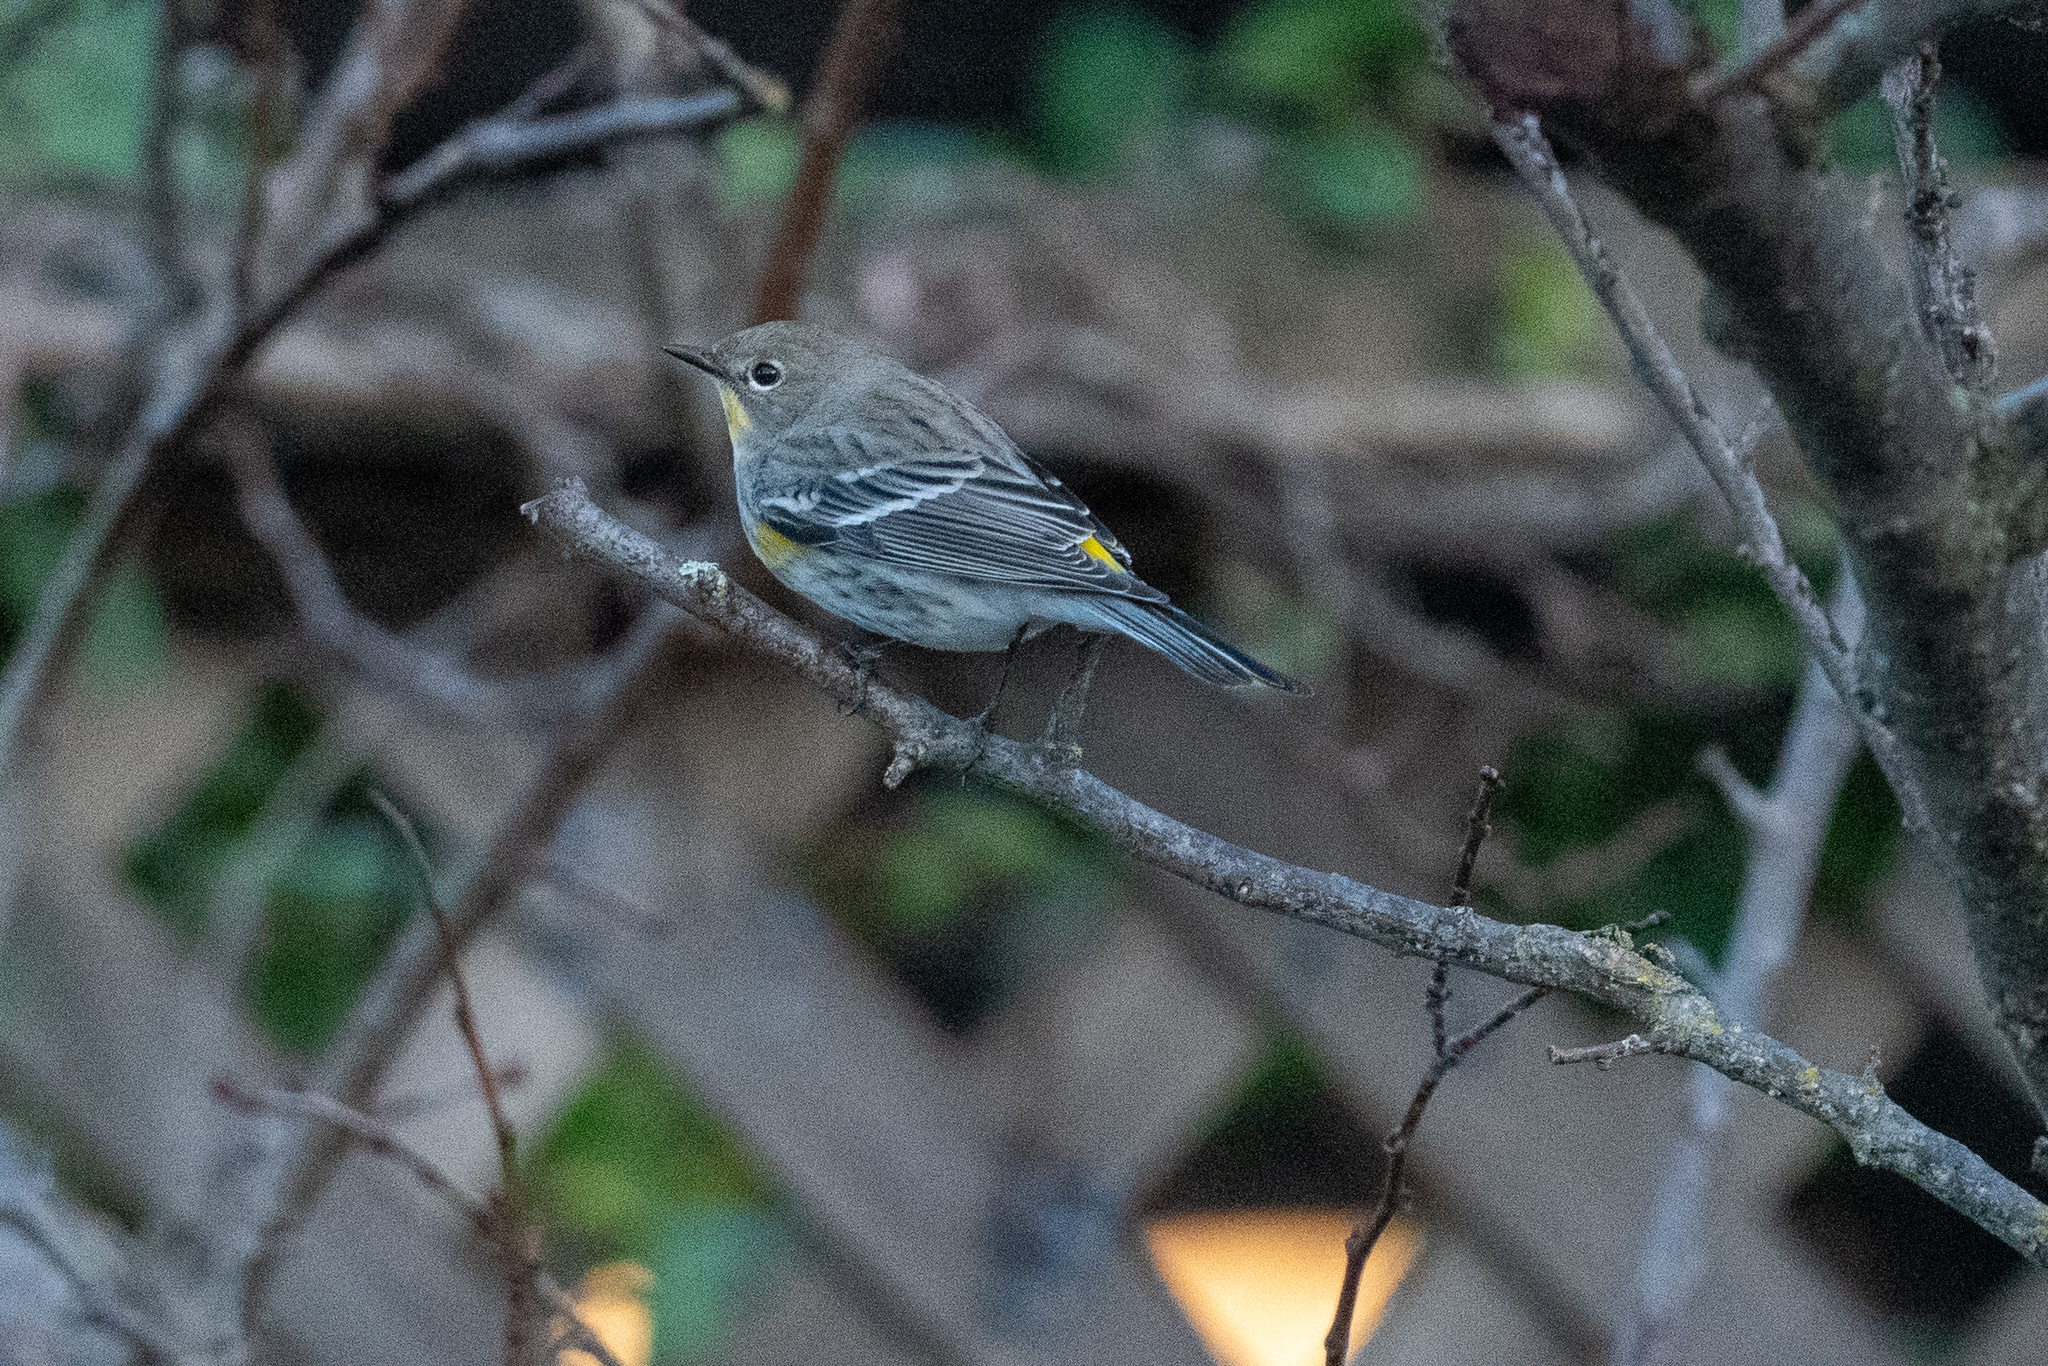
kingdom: Animalia
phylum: Chordata
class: Aves
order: Passeriformes
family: Parulidae
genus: Setophaga
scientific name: Setophaga coronata
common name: Myrtle warbler
